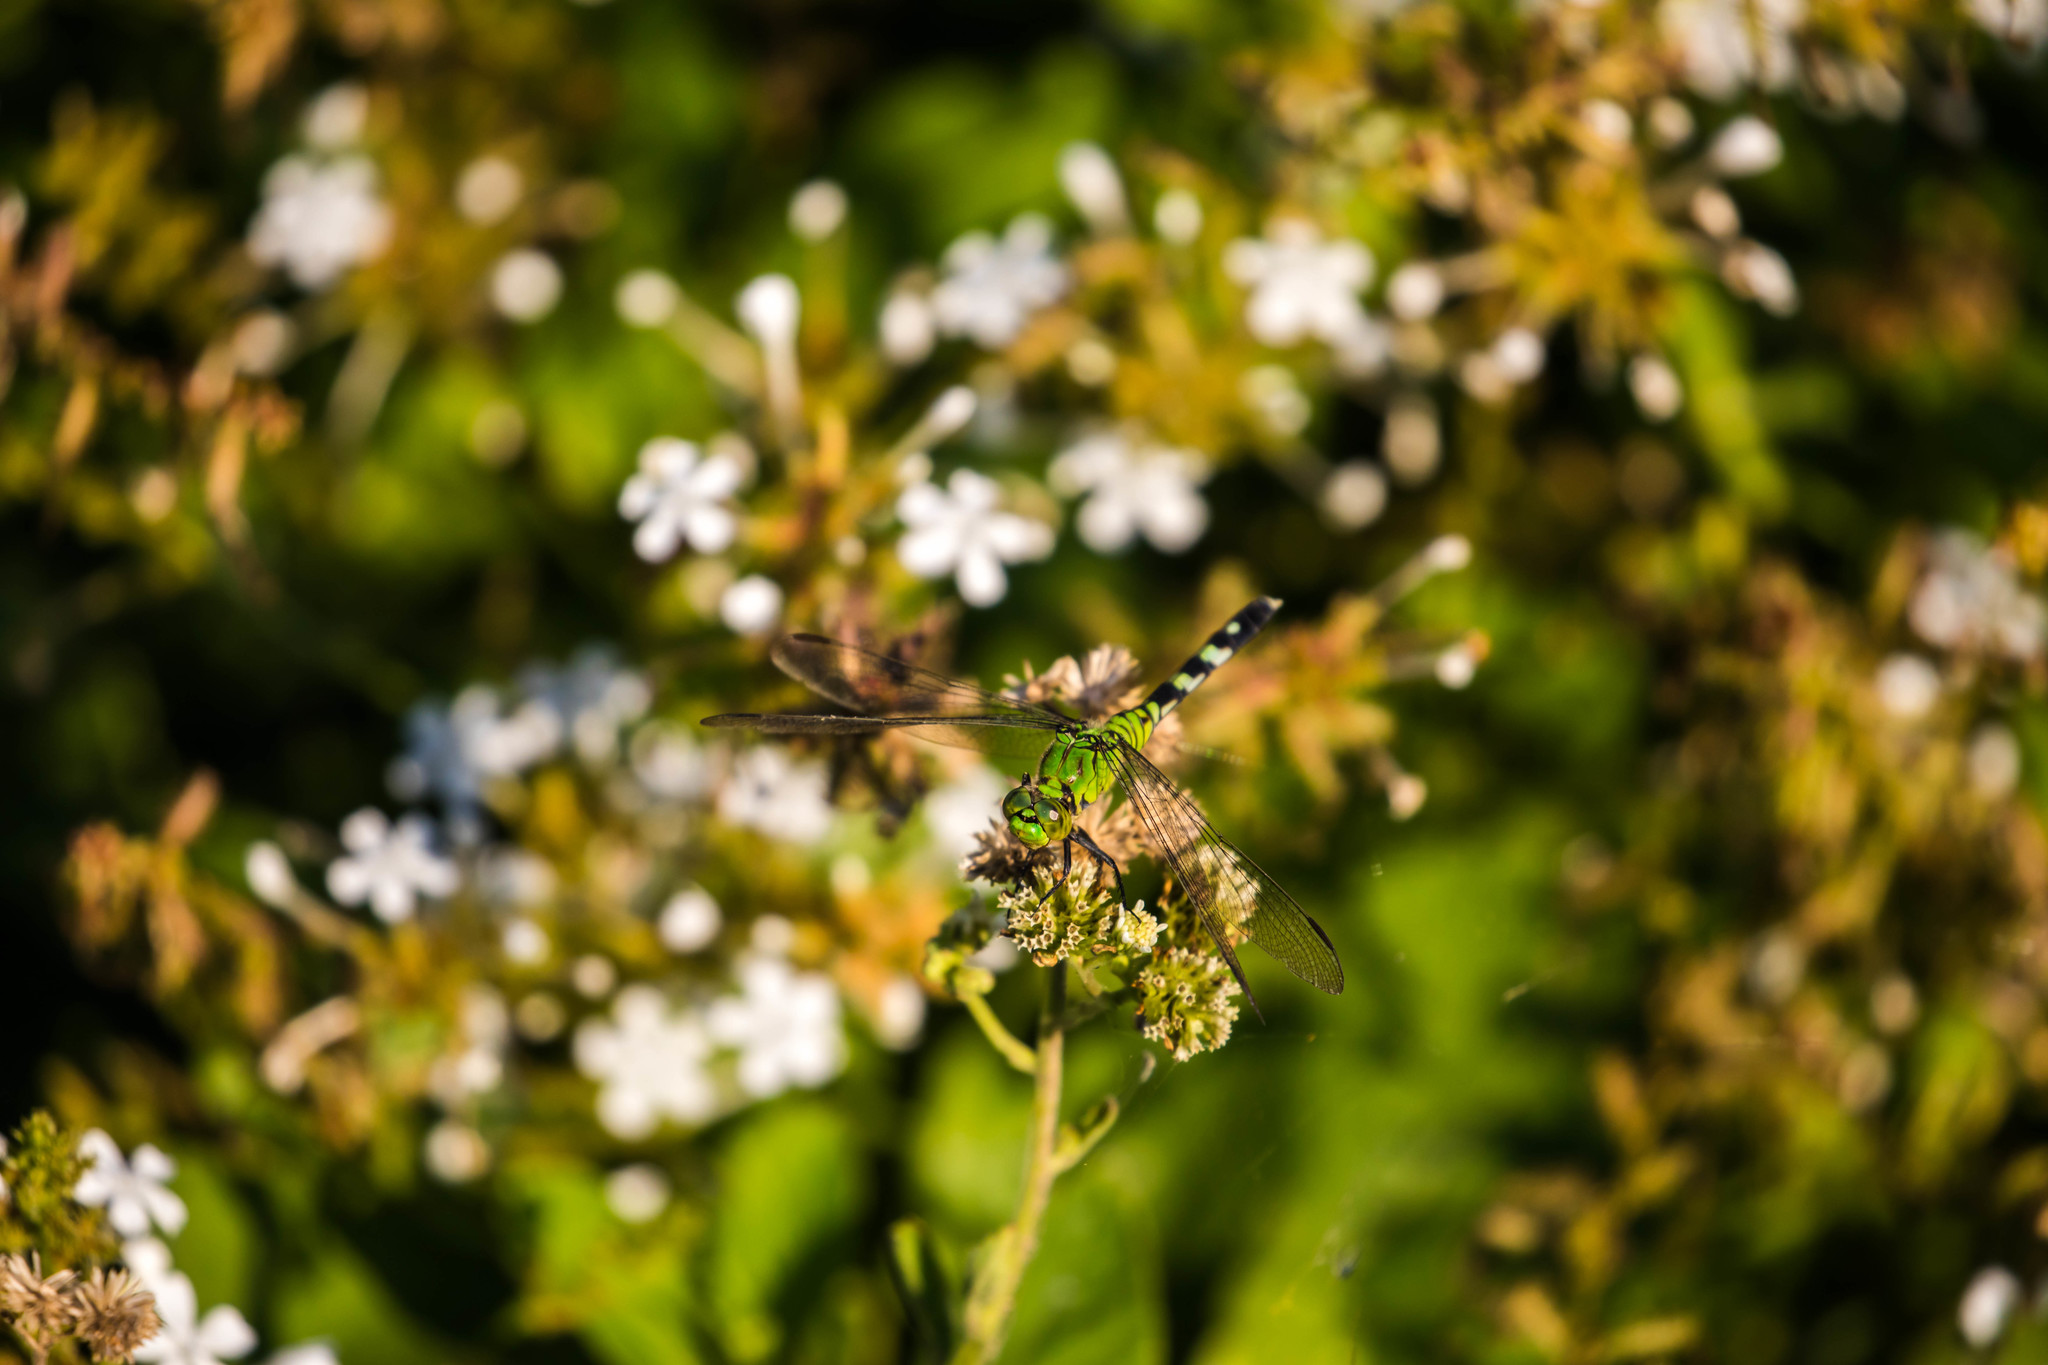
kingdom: Animalia
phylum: Arthropoda
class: Insecta
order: Odonata
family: Libellulidae
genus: Erythemis
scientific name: Erythemis simplicicollis
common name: Eastern pondhawk
